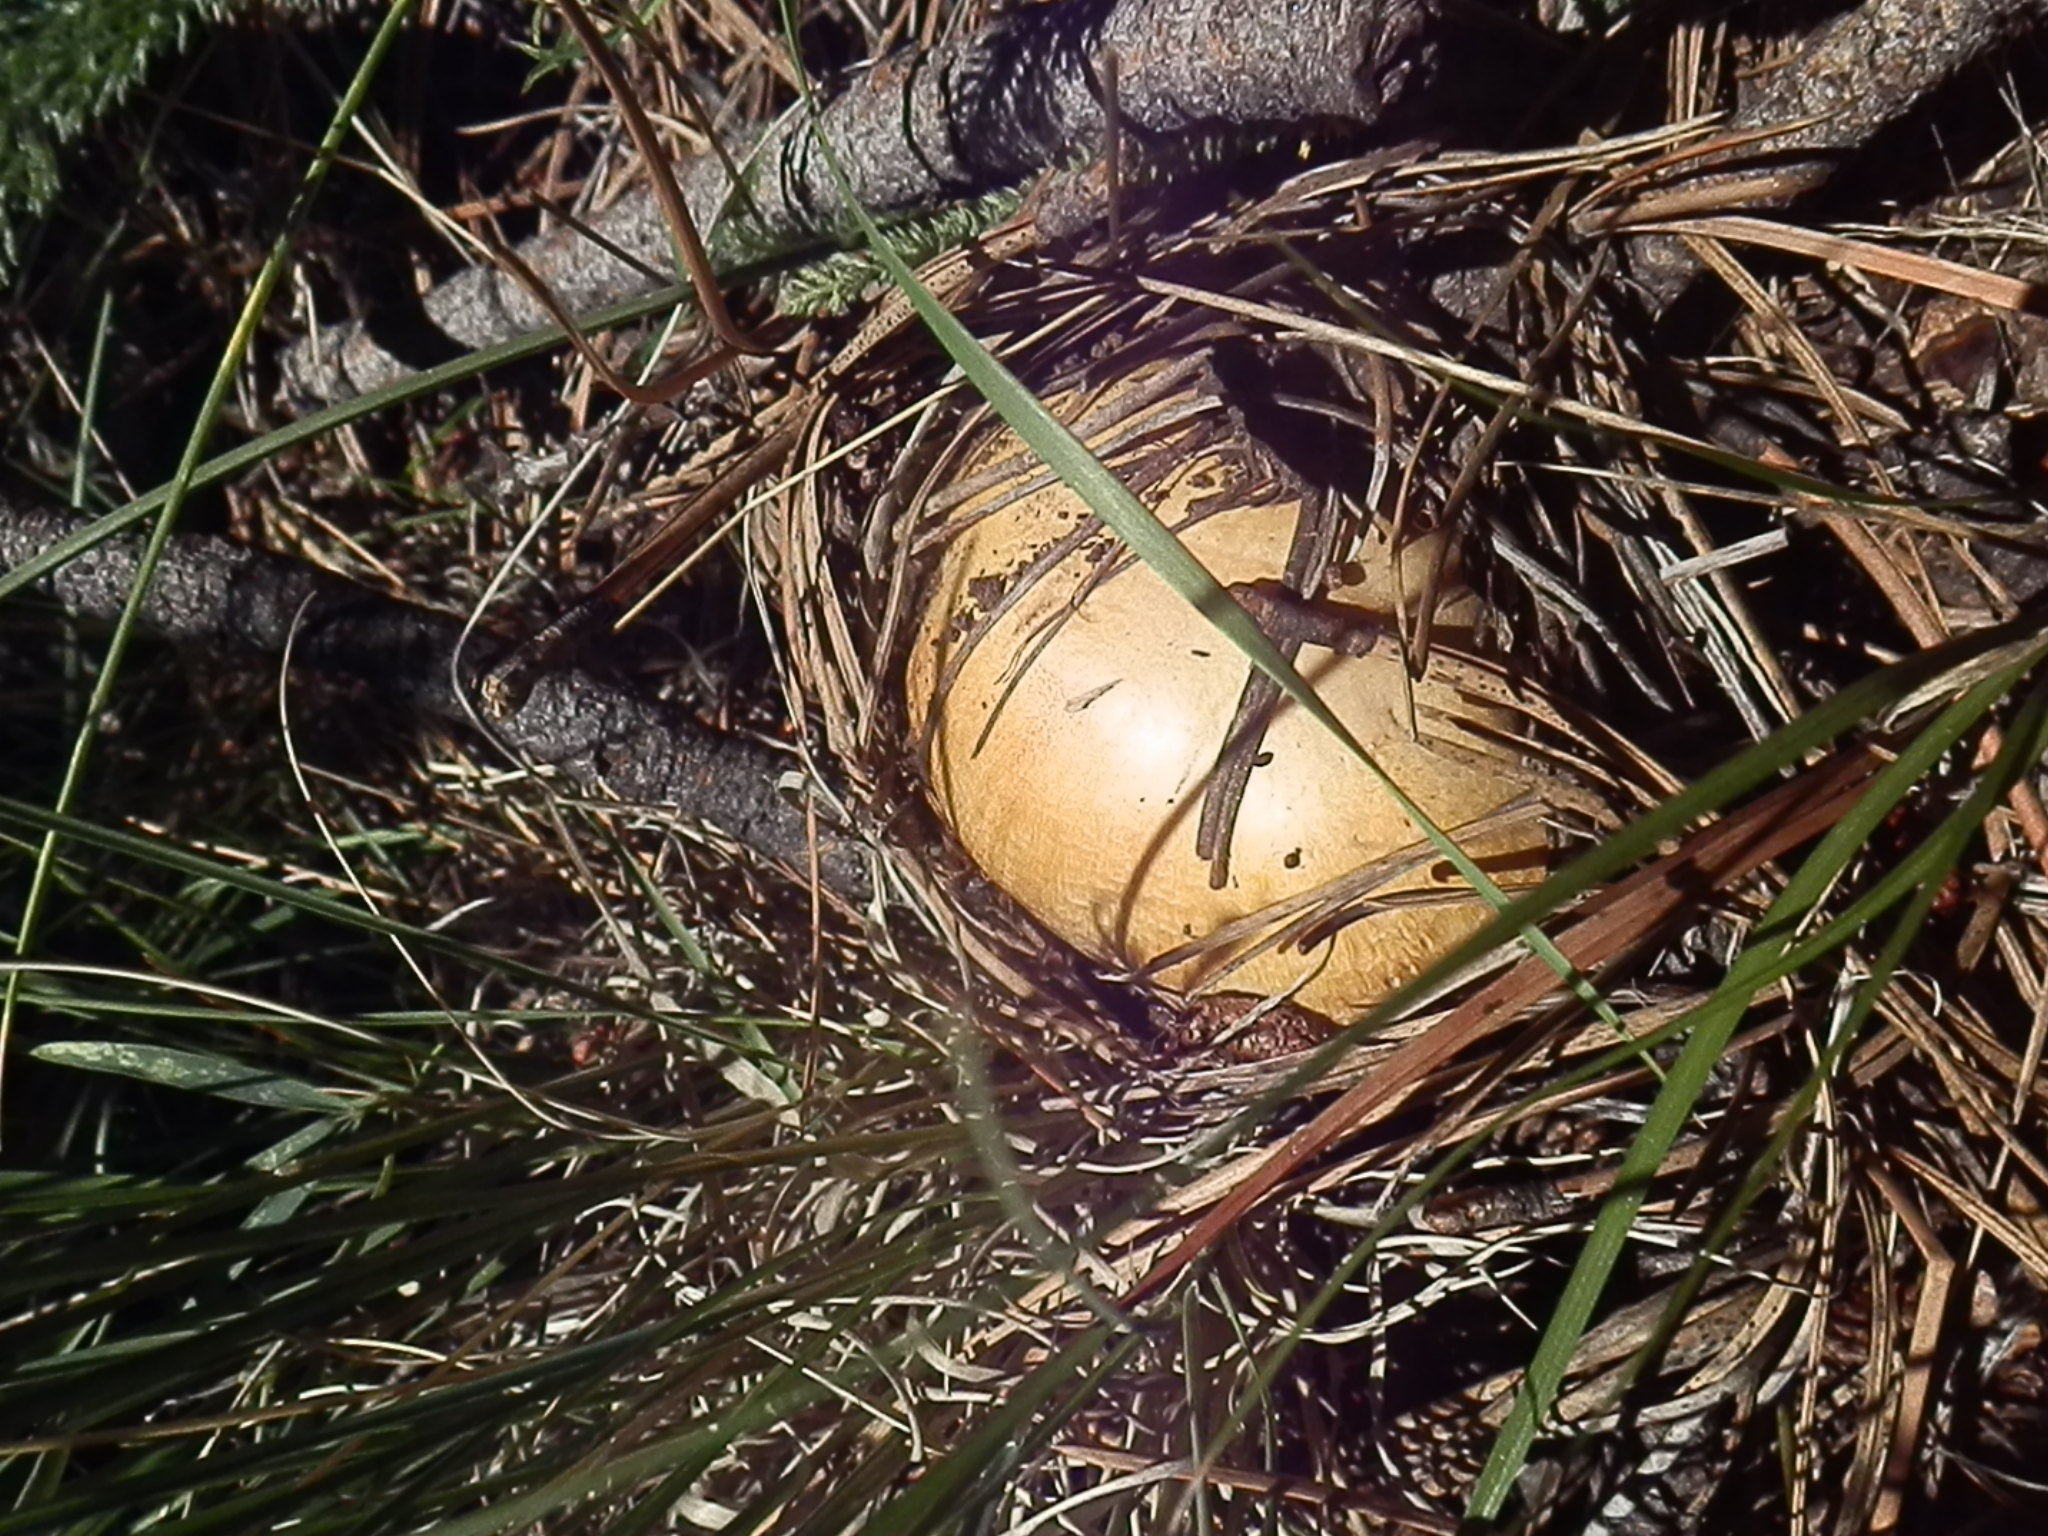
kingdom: Fungi
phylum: Basidiomycota
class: Agaricomycetes
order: Agaricales
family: Agaricaceae
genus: Agaricus
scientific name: Agaricus didymus
